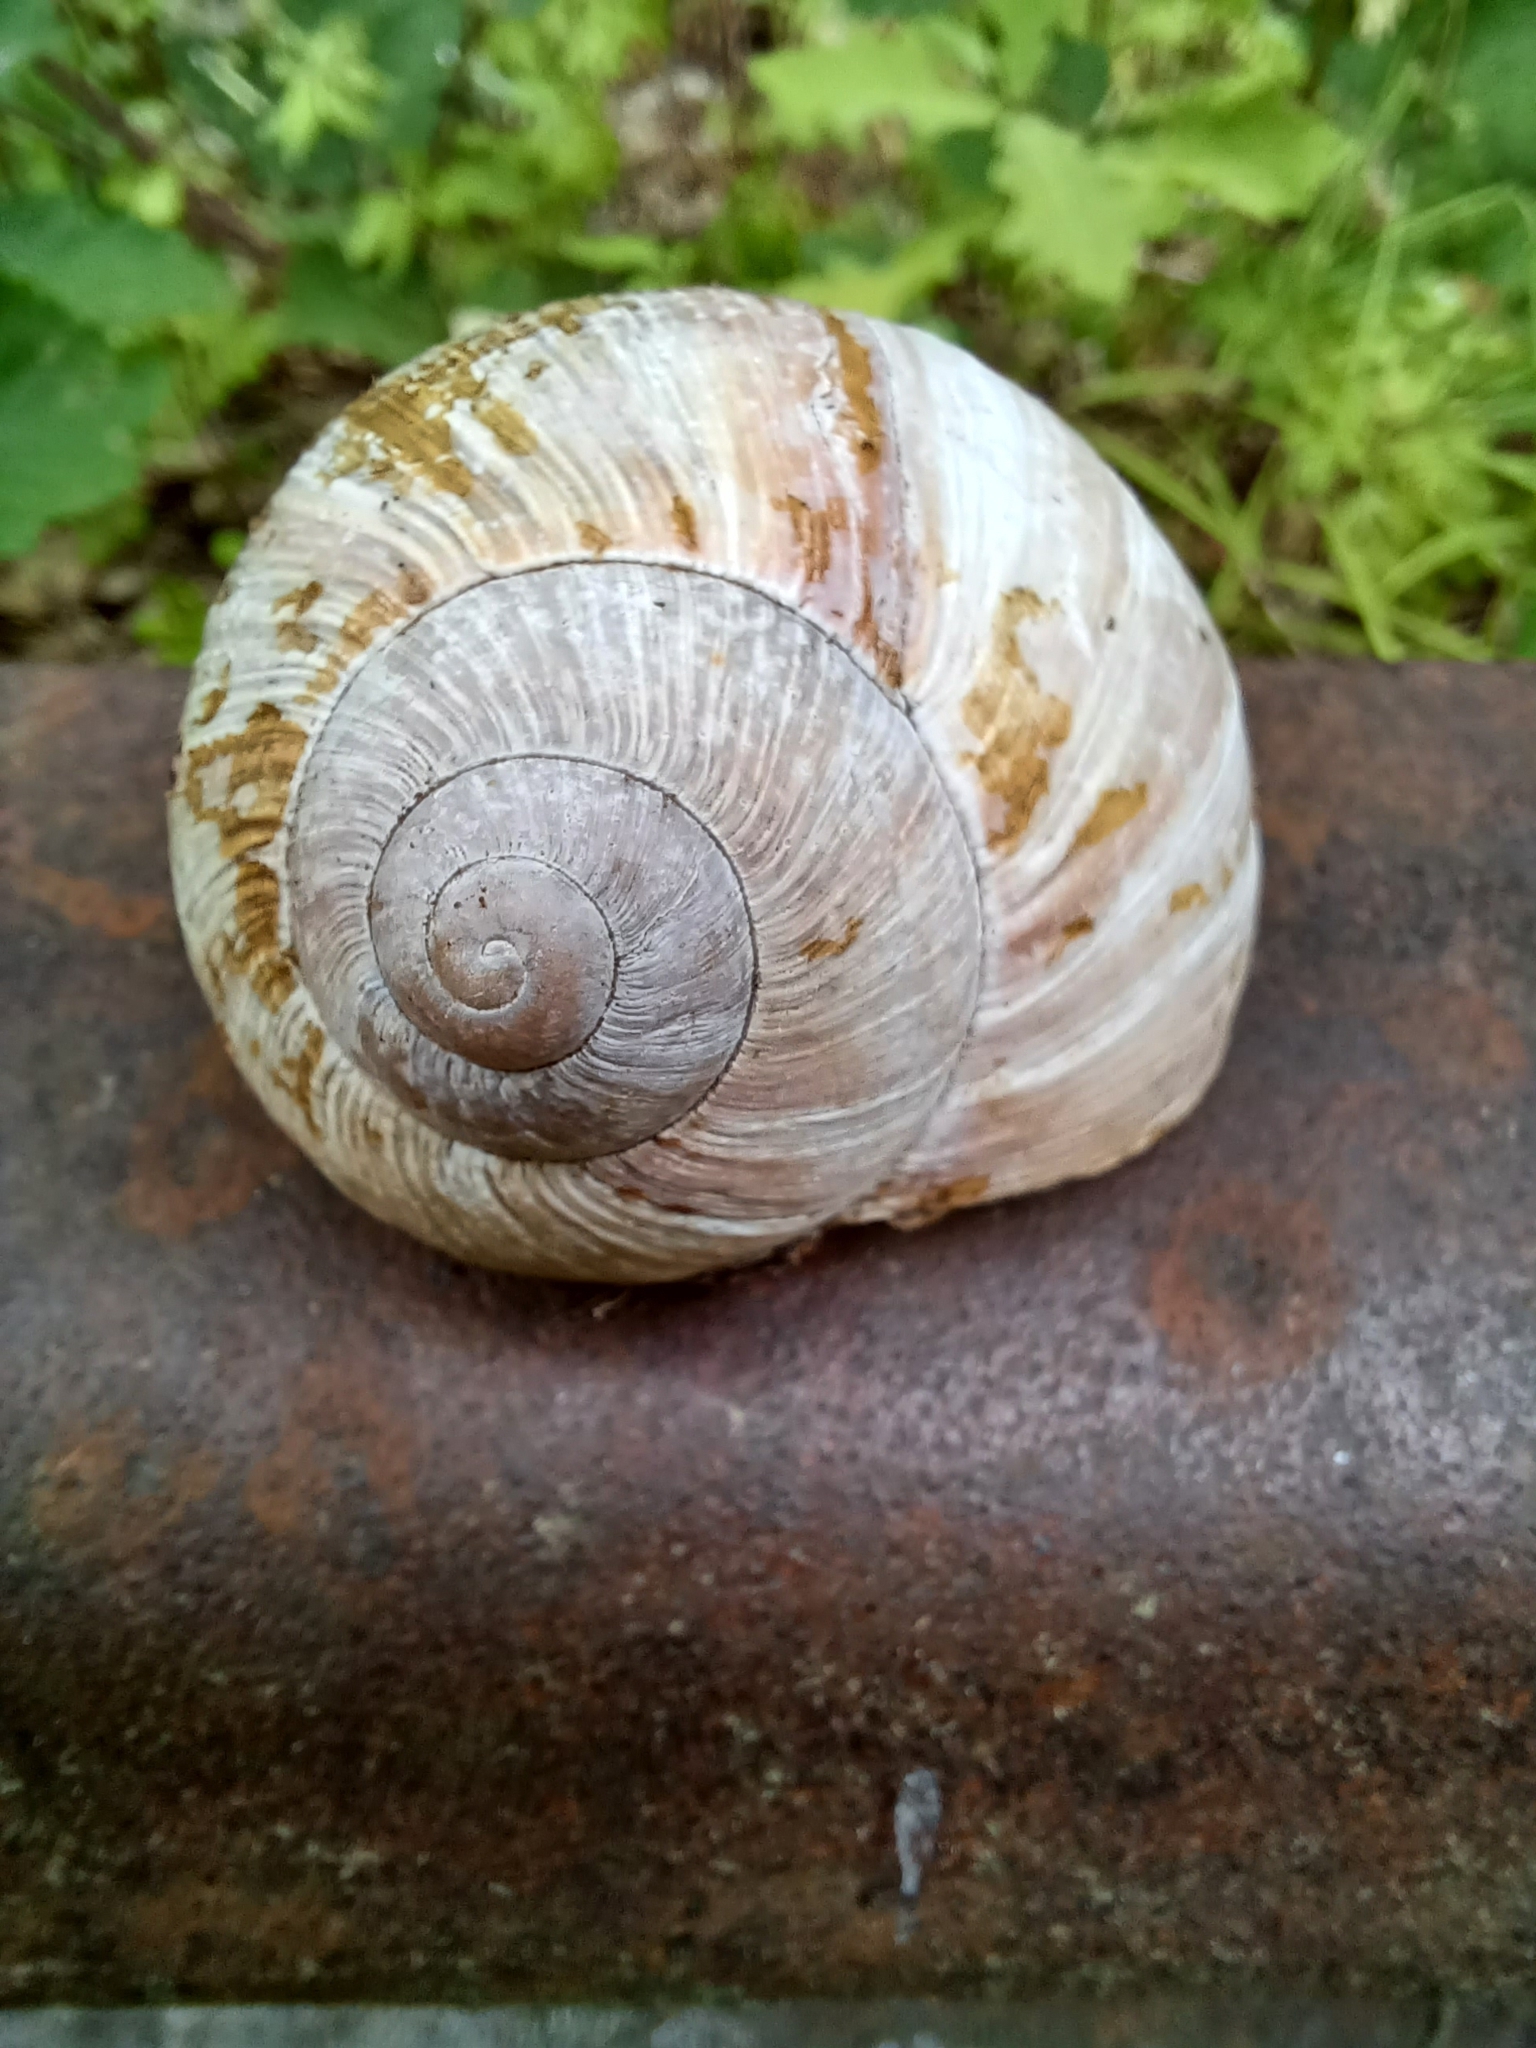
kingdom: Animalia
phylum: Mollusca
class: Gastropoda
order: Stylommatophora
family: Helicidae
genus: Helix
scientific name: Helix pomatia
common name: Roman snail
